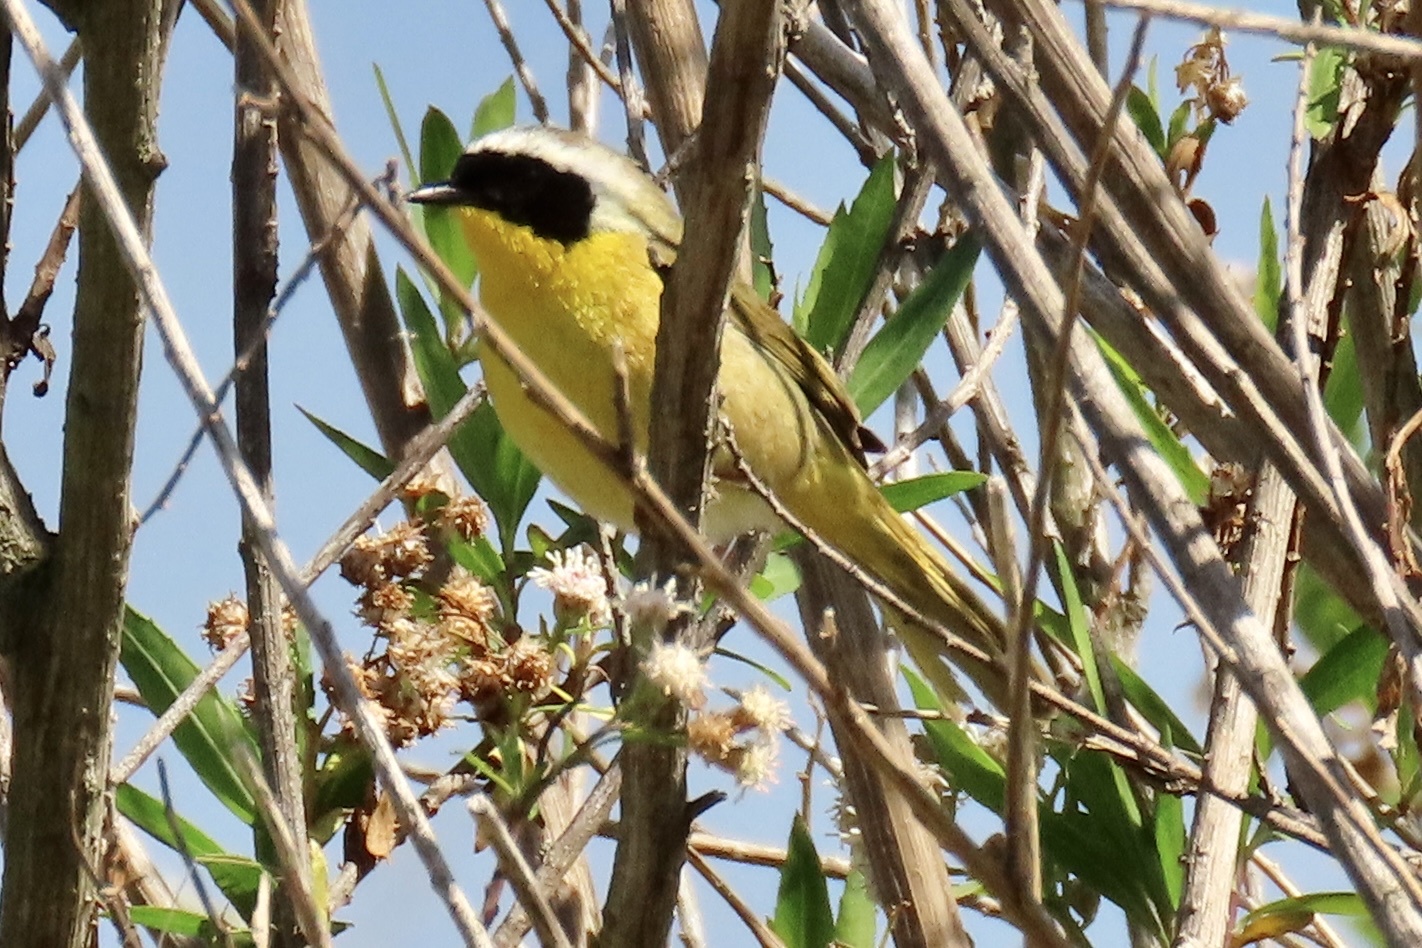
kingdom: Animalia
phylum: Chordata
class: Aves
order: Passeriformes
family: Parulidae
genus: Geothlypis
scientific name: Geothlypis trichas
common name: Common yellowthroat
